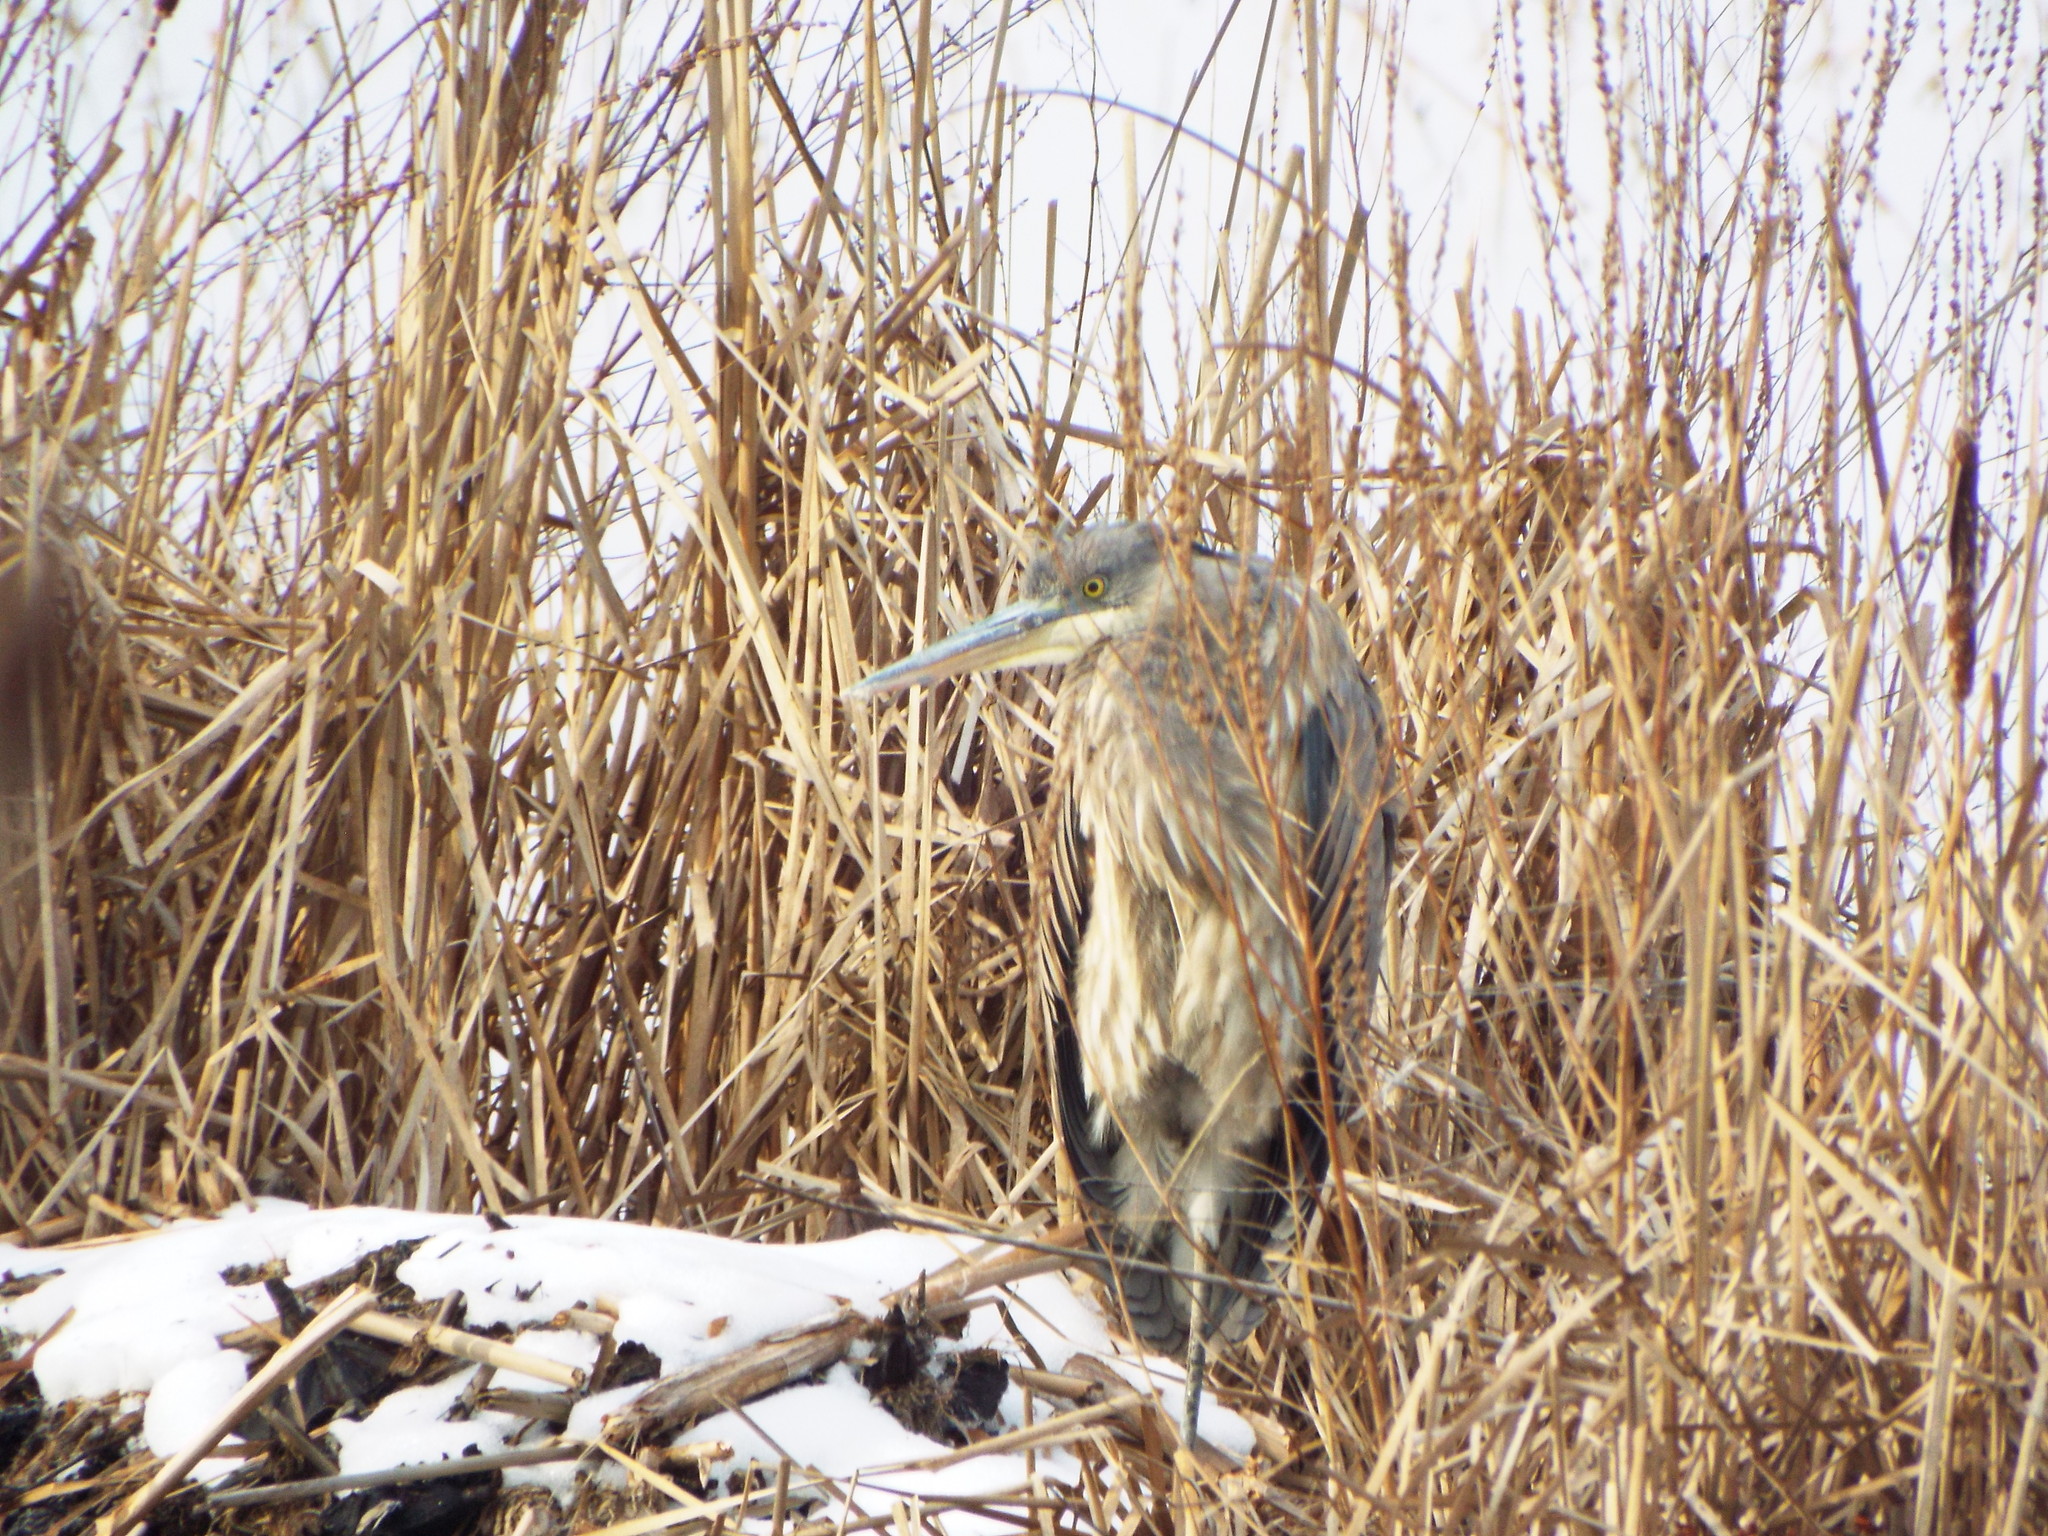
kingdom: Animalia
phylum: Chordata
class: Aves
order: Pelecaniformes
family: Ardeidae
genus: Ardea
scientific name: Ardea herodias
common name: Great blue heron
